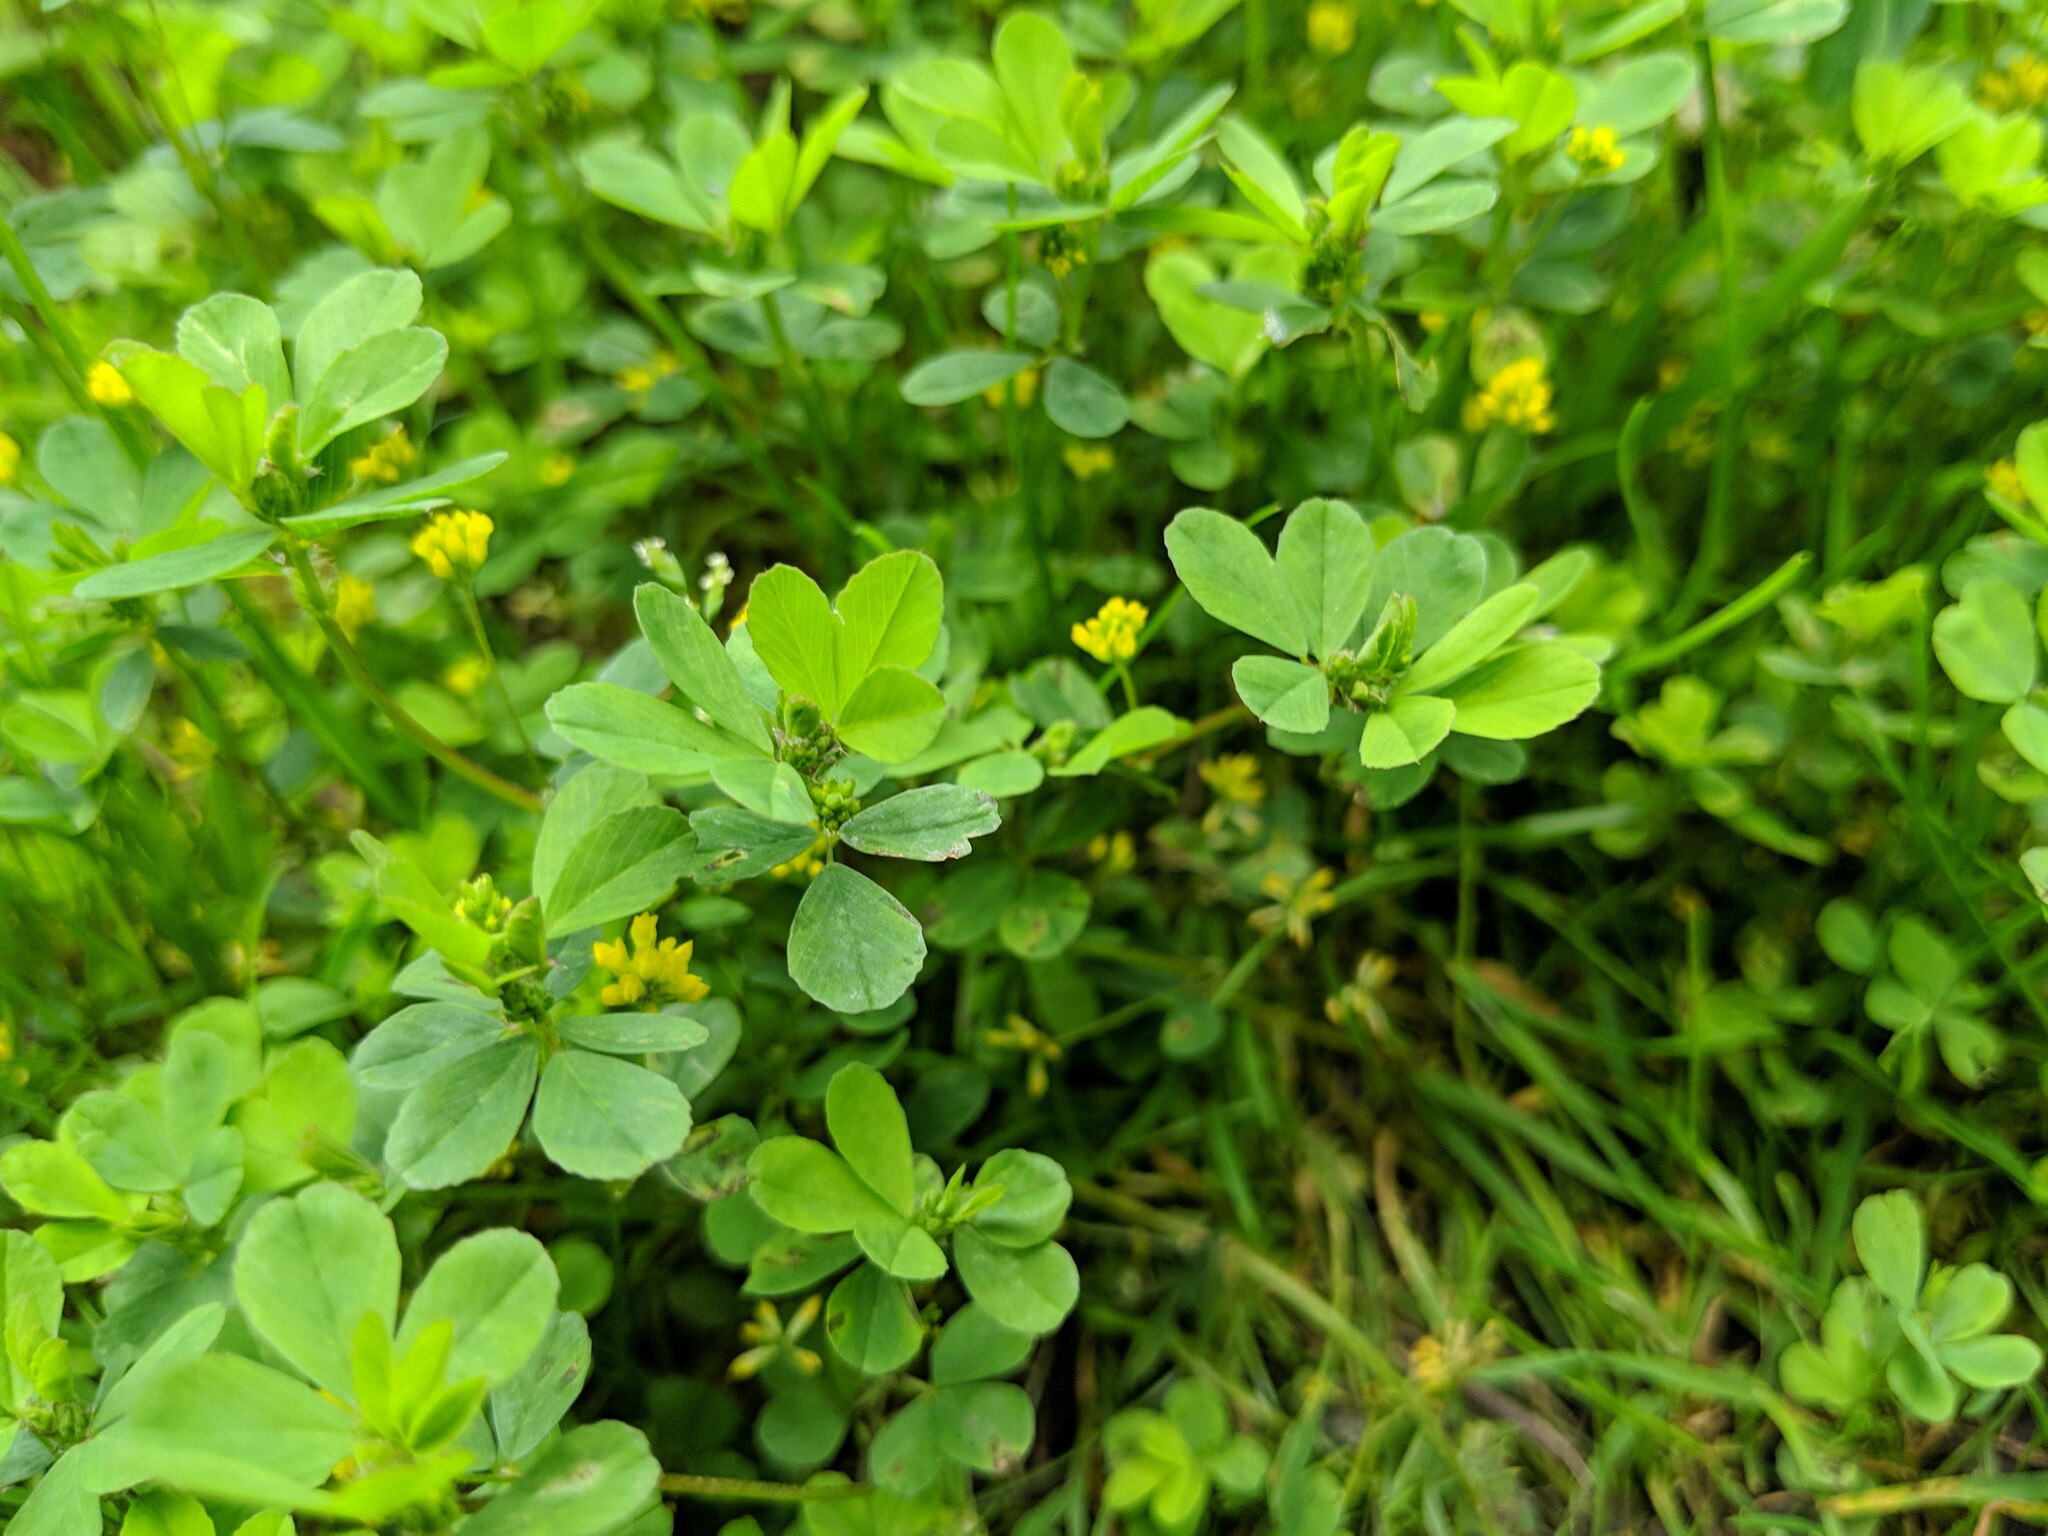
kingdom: Plantae
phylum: Tracheophyta
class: Magnoliopsida
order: Fabales
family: Fabaceae
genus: Trifolium
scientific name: Trifolium dubium
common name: Suckling clover
